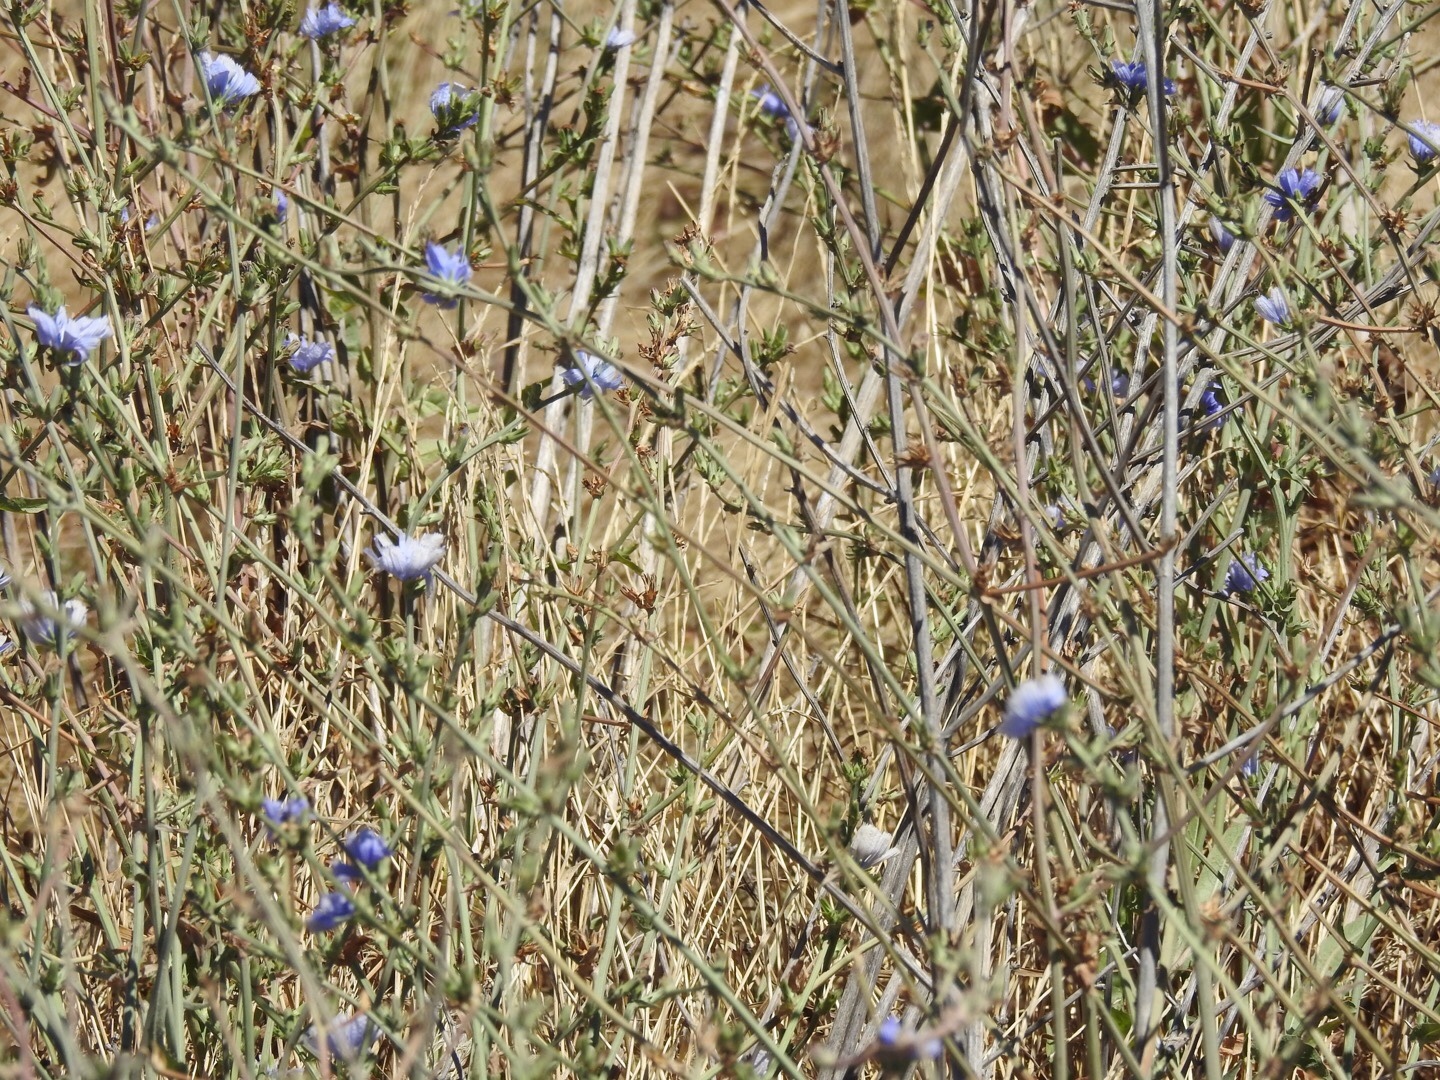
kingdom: Plantae
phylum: Tracheophyta
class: Magnoliopsida
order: Asterales
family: Asteraceae
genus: Cichorium
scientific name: Cichorium intybus
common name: Chicory
